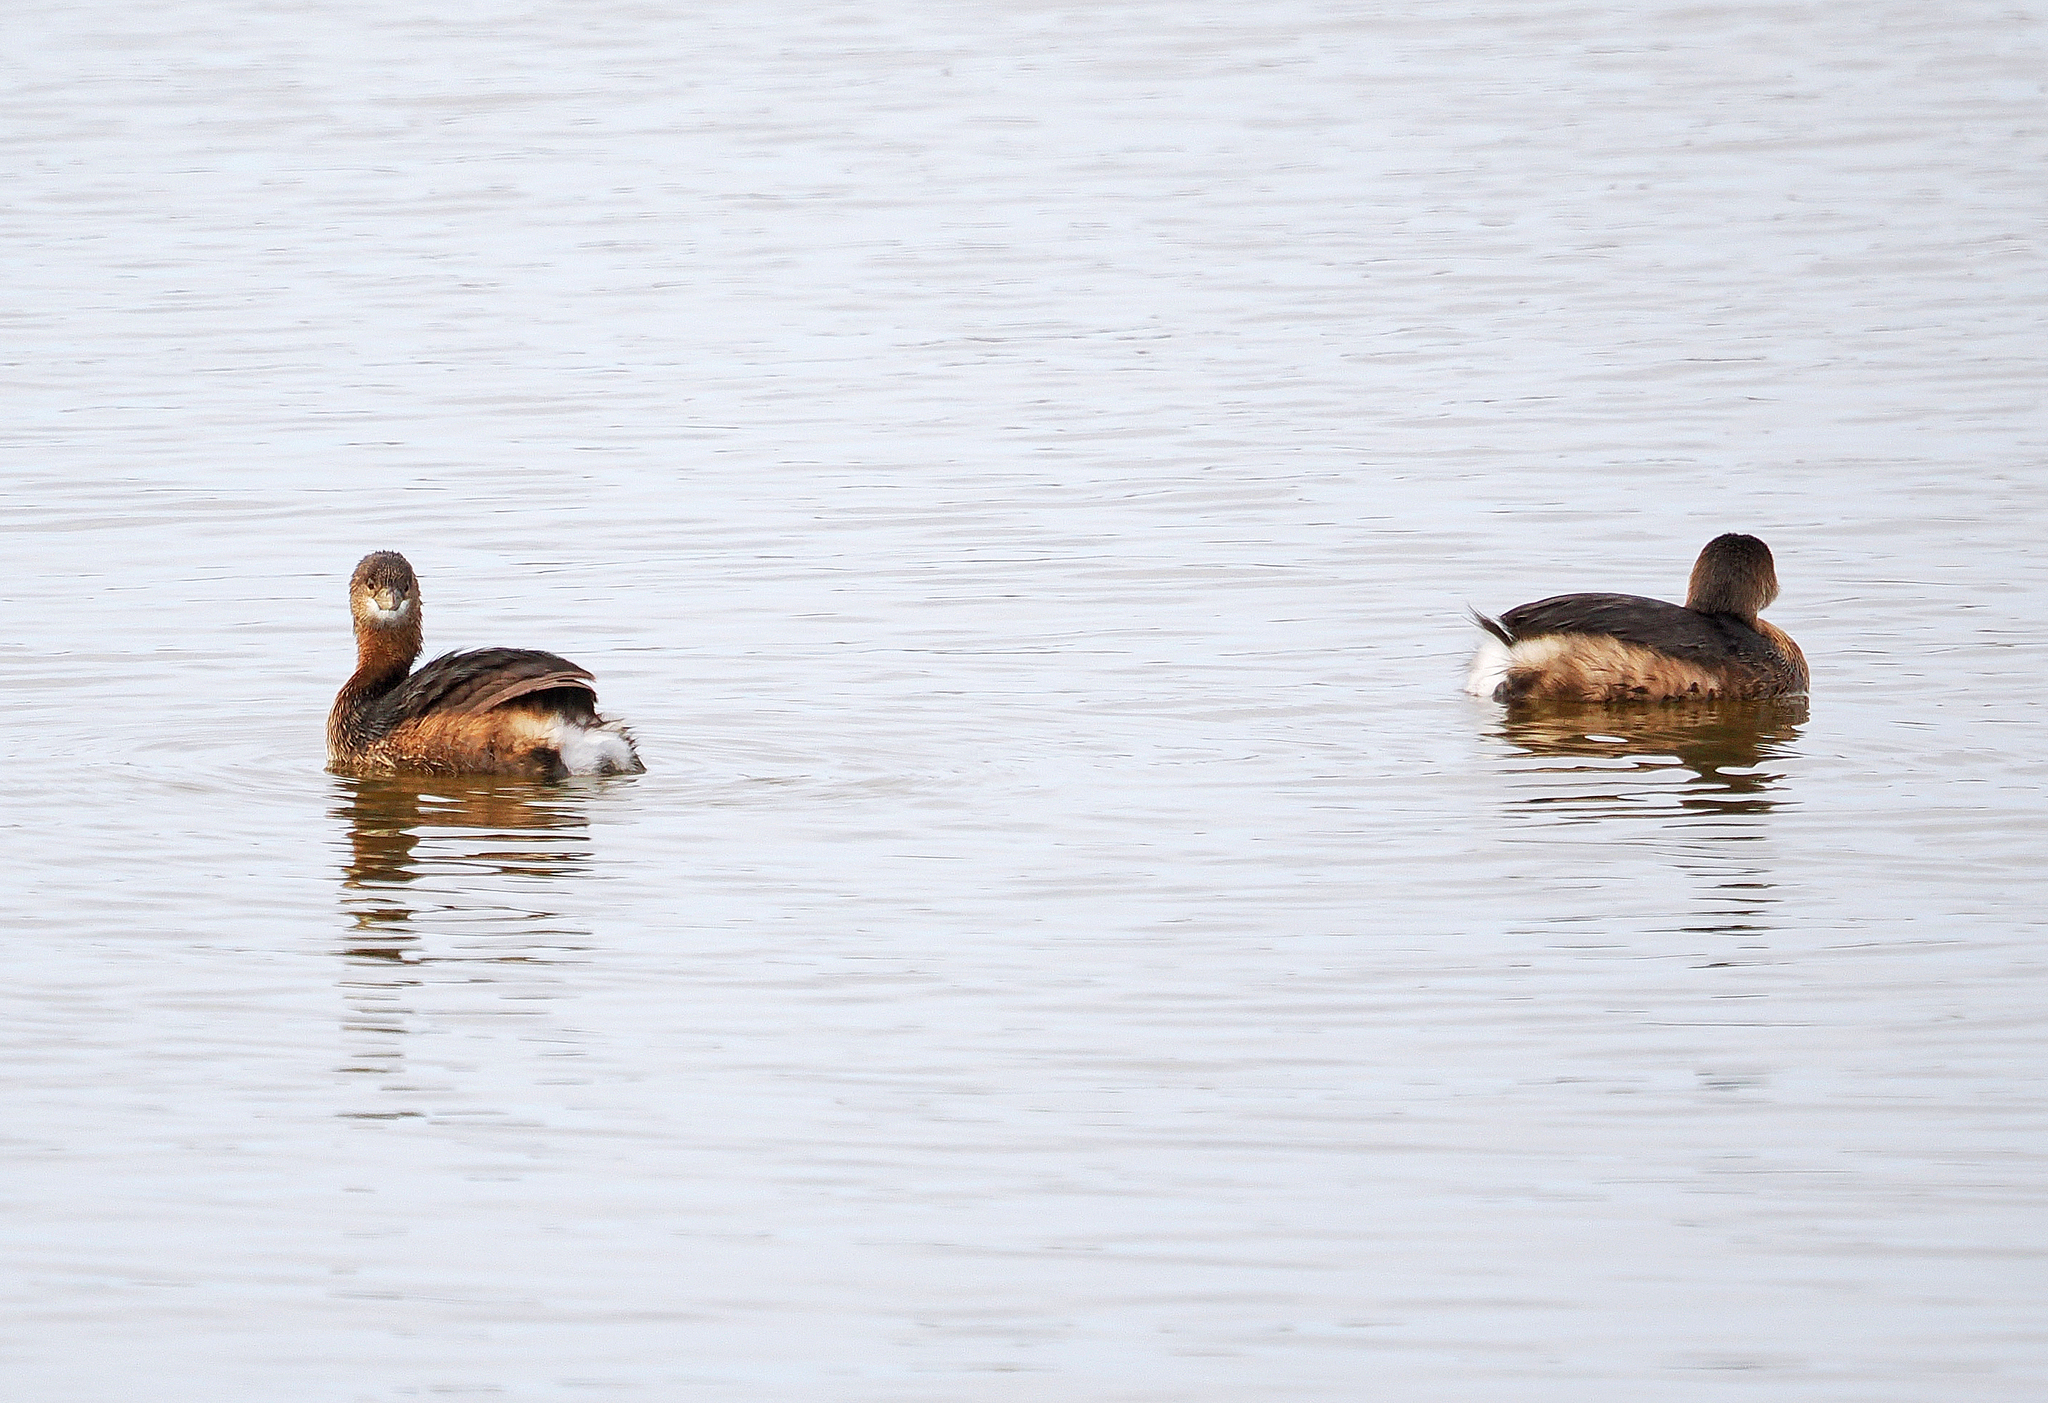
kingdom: Animalia
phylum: Chordata
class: Aves
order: Podicipediformes
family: Podicipedidae
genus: Podilymbus
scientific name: Podilymbus podiceps
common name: Pied-billed grebe
